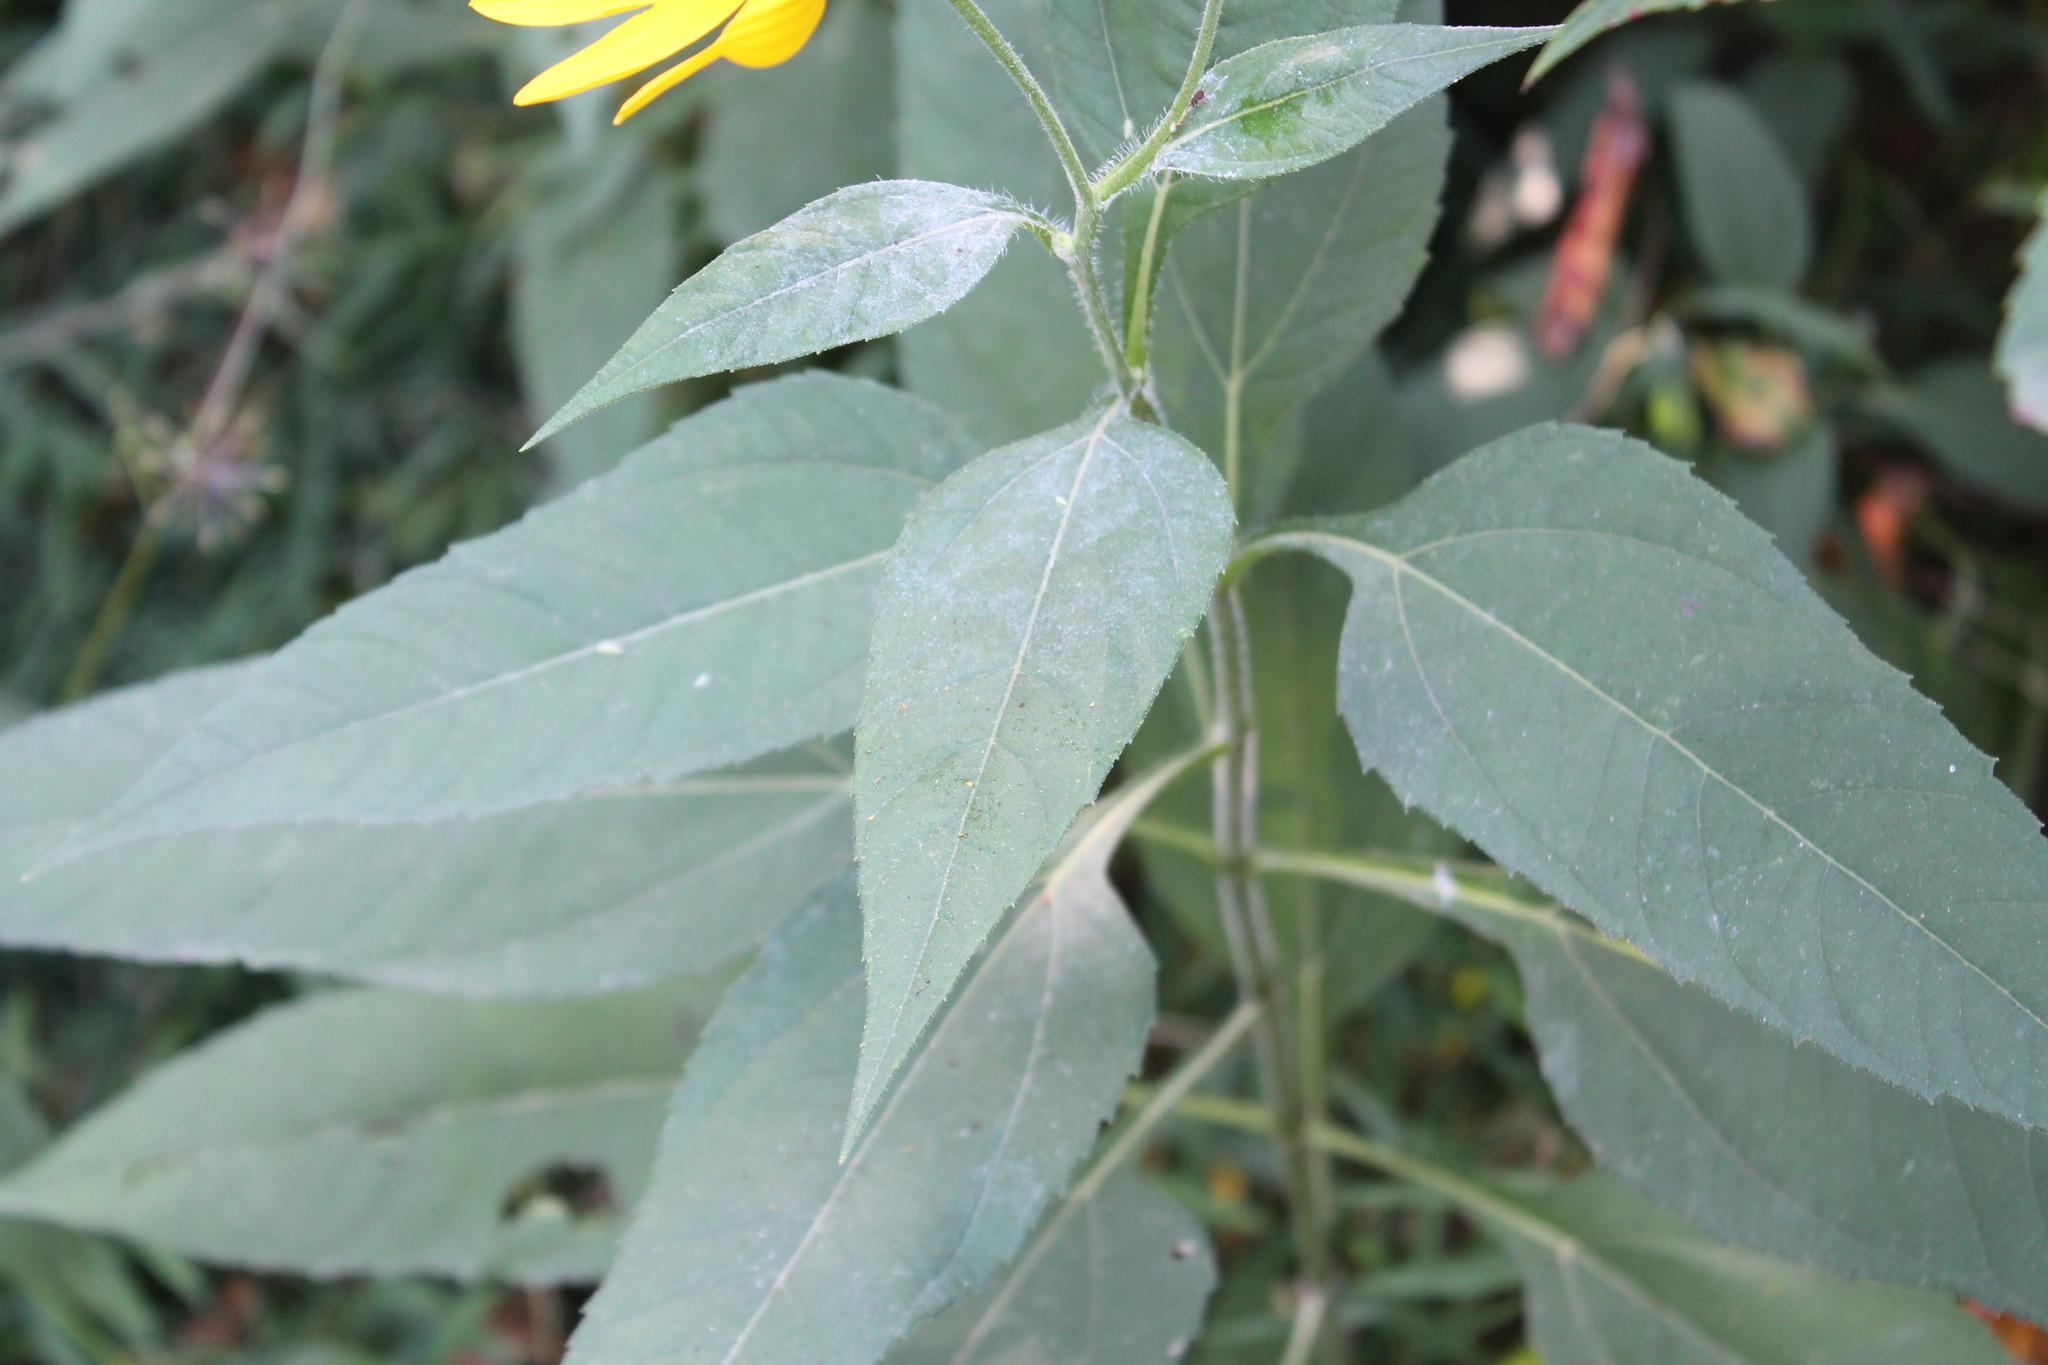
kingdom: Plantae
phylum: Tracheophyta
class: Magnoliopsida
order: Asterales
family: Asteraceae
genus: Helianthus
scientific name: Helianthus tuberosus
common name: Jerusalem artichoke
